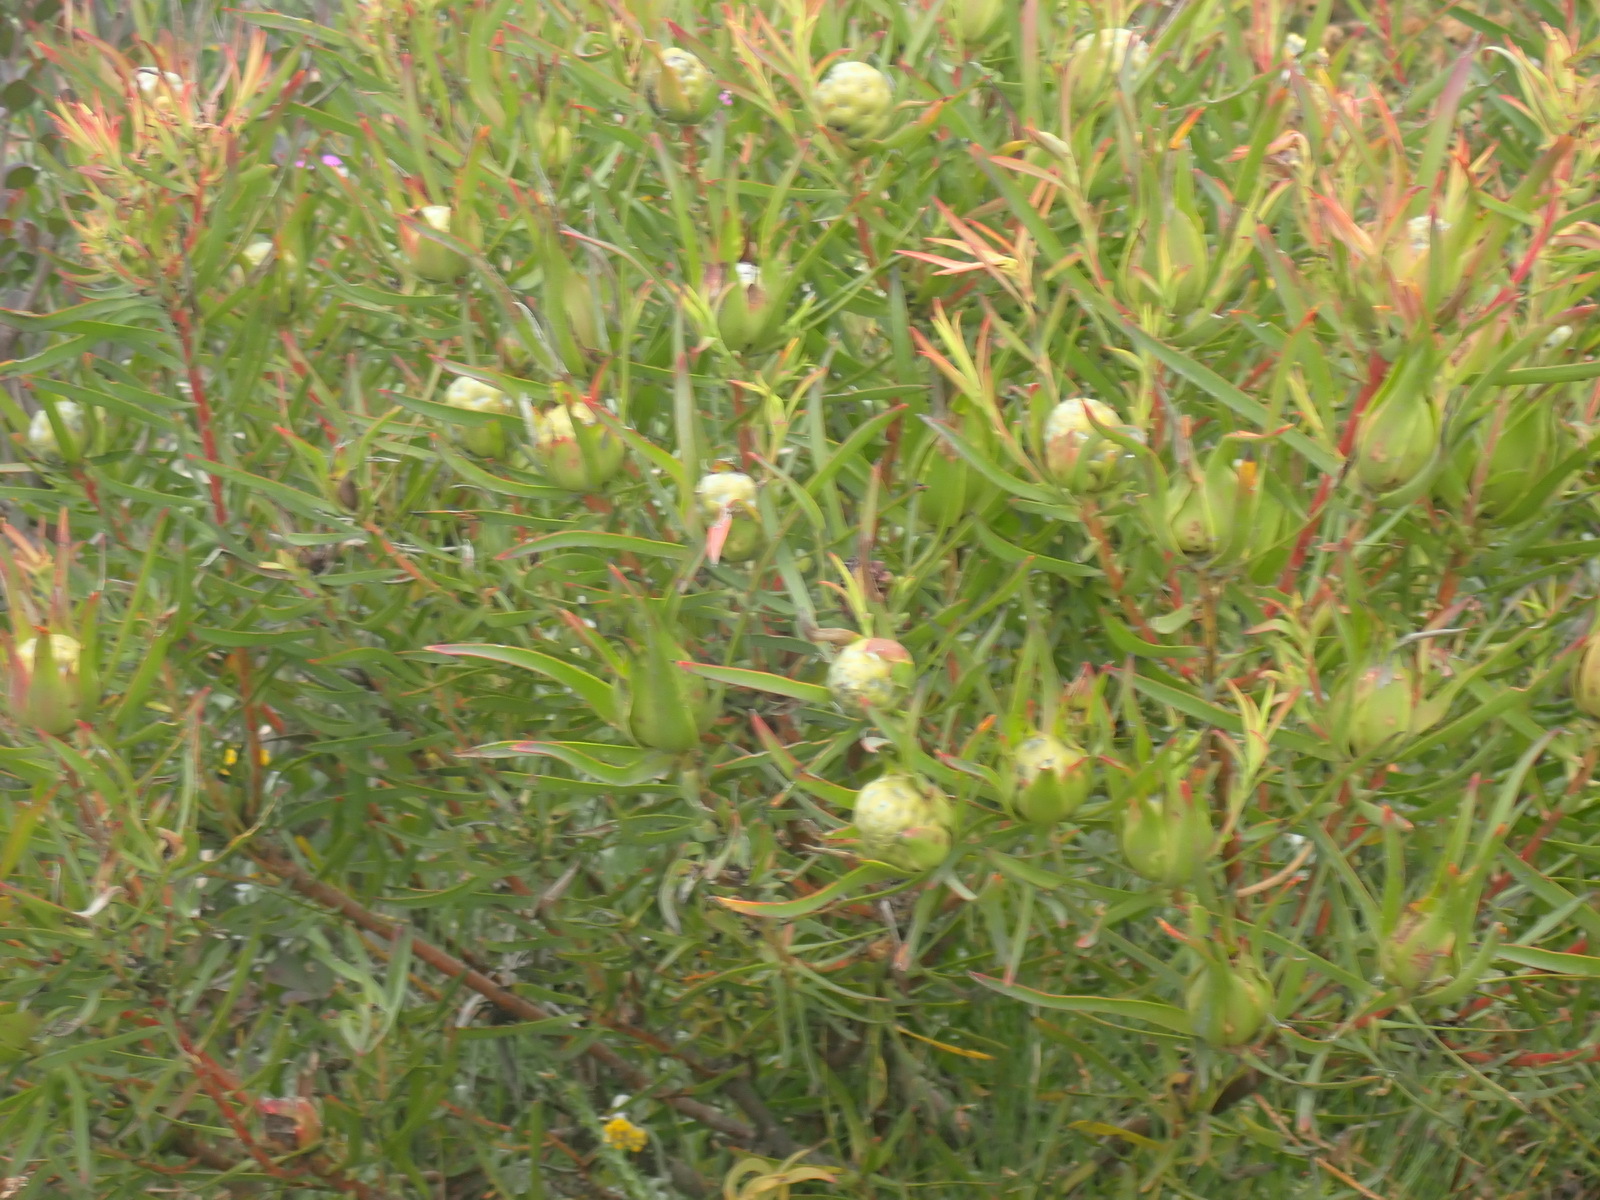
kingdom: Plantae
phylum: Tracheophyta
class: Magnoliopsida
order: Proteales
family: Proteaceae
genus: Leucadendron
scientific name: Leucadendron salignum
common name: Common sunshine conebush
